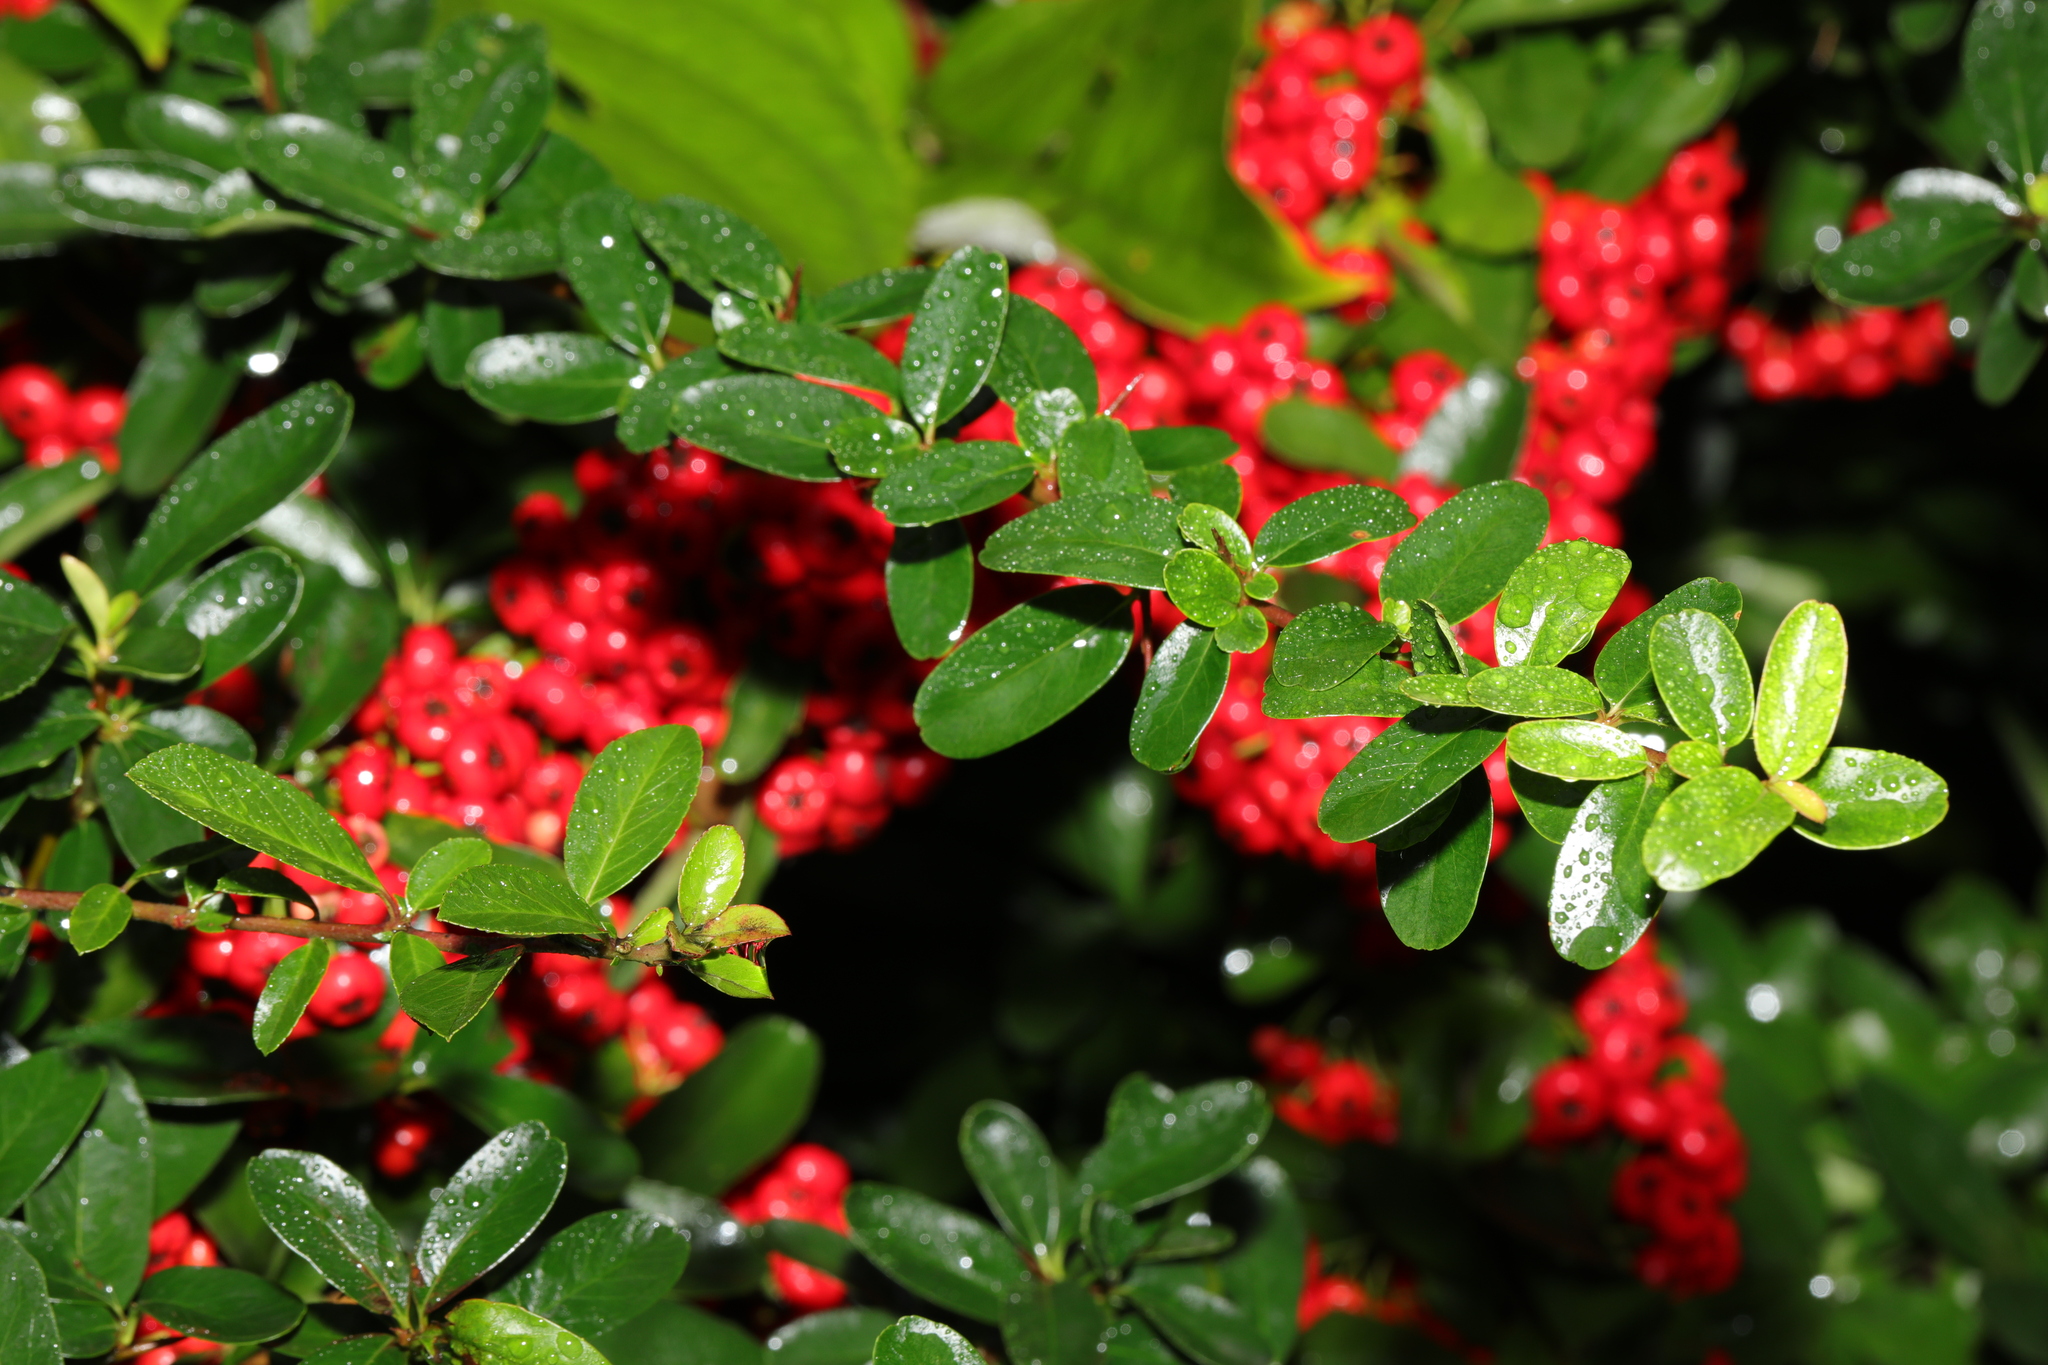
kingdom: Plantae
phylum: Tracheophyta
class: Magnoliopsida
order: Rosales
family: Rosaceae
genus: Pyracantha
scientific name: Pyracantha coccinea
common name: Firethorn
